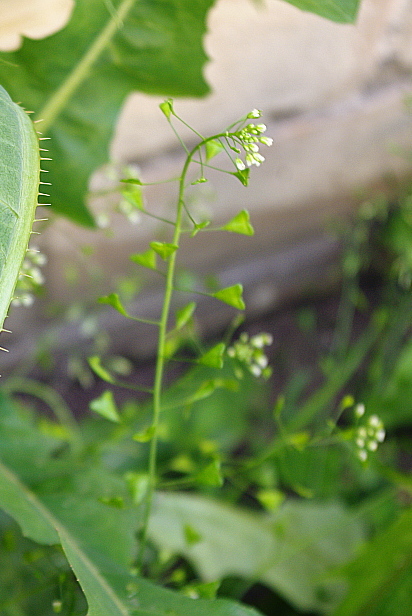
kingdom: Plantae
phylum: Tracheophyta
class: Magnoliopsida
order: Brassicales
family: Brassicaceae
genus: Capsella
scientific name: Capsella bursa-pastoris
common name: Shepherd's purse
